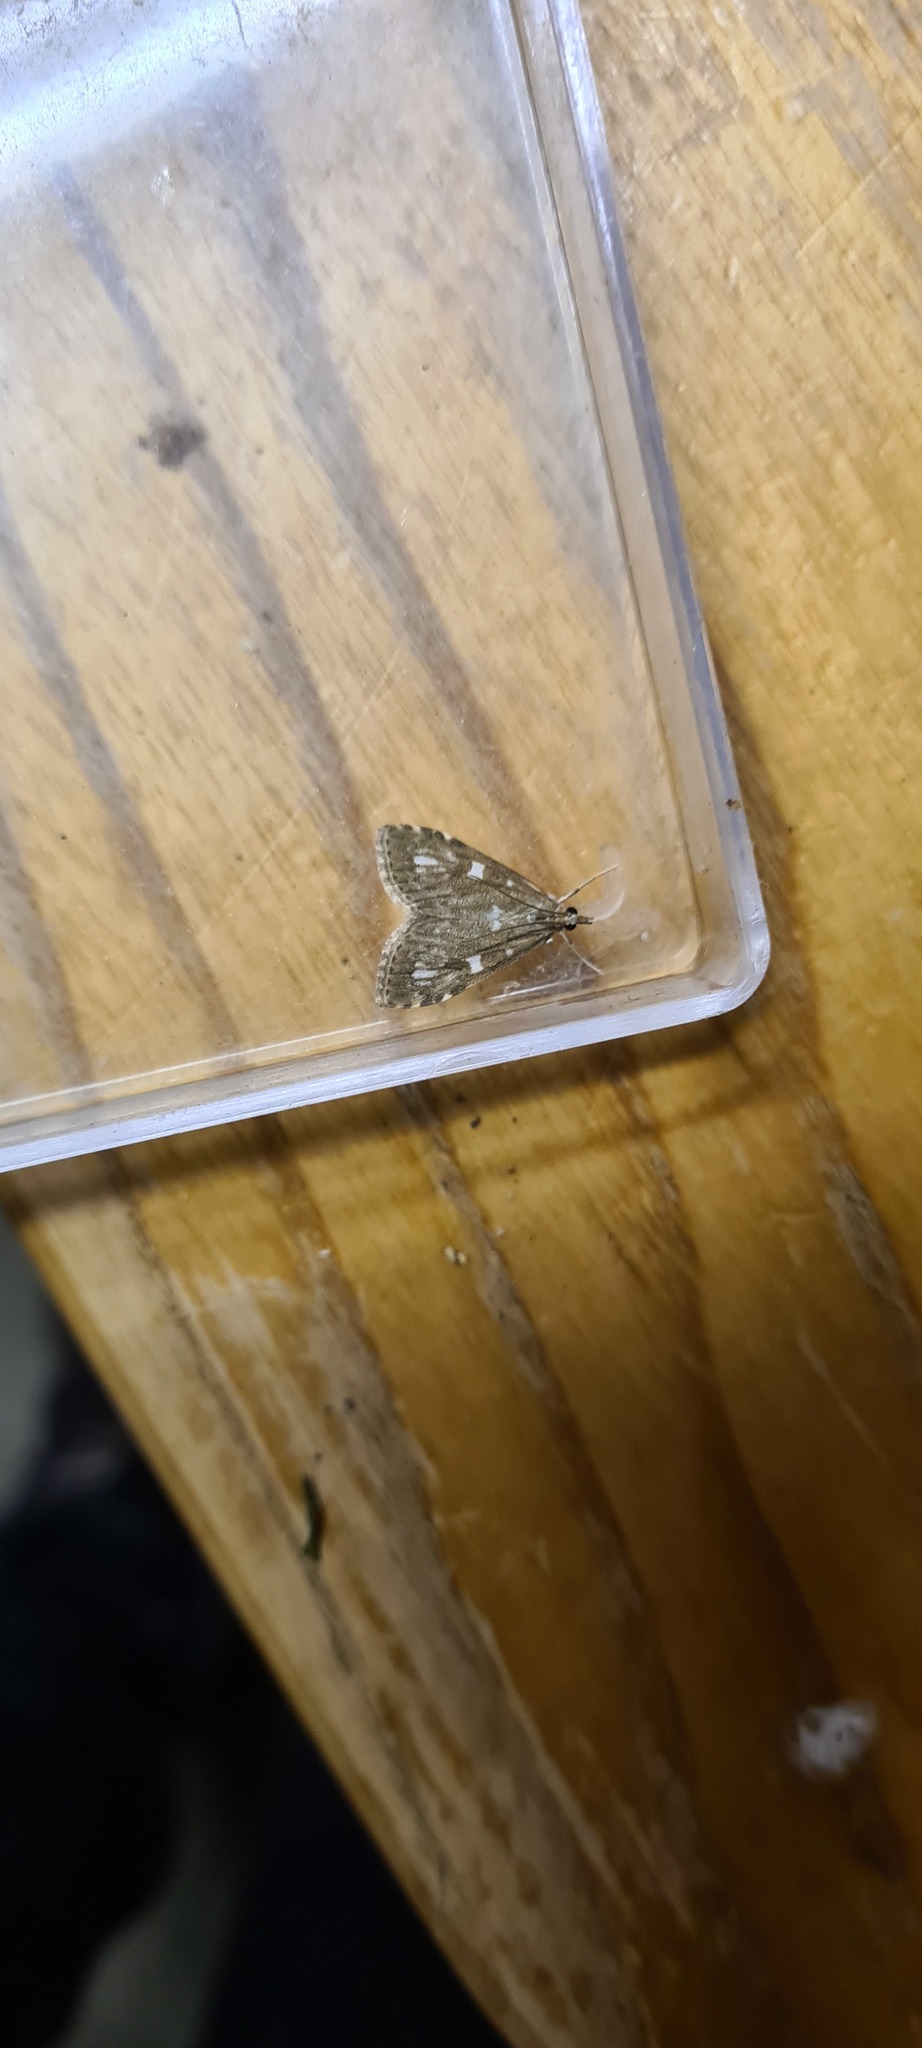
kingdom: Animalia
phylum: Arthropoda
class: Insecta
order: Lepidoptera
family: Crambidae
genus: Udea
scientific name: Udea olivalis
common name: Olive pearl
